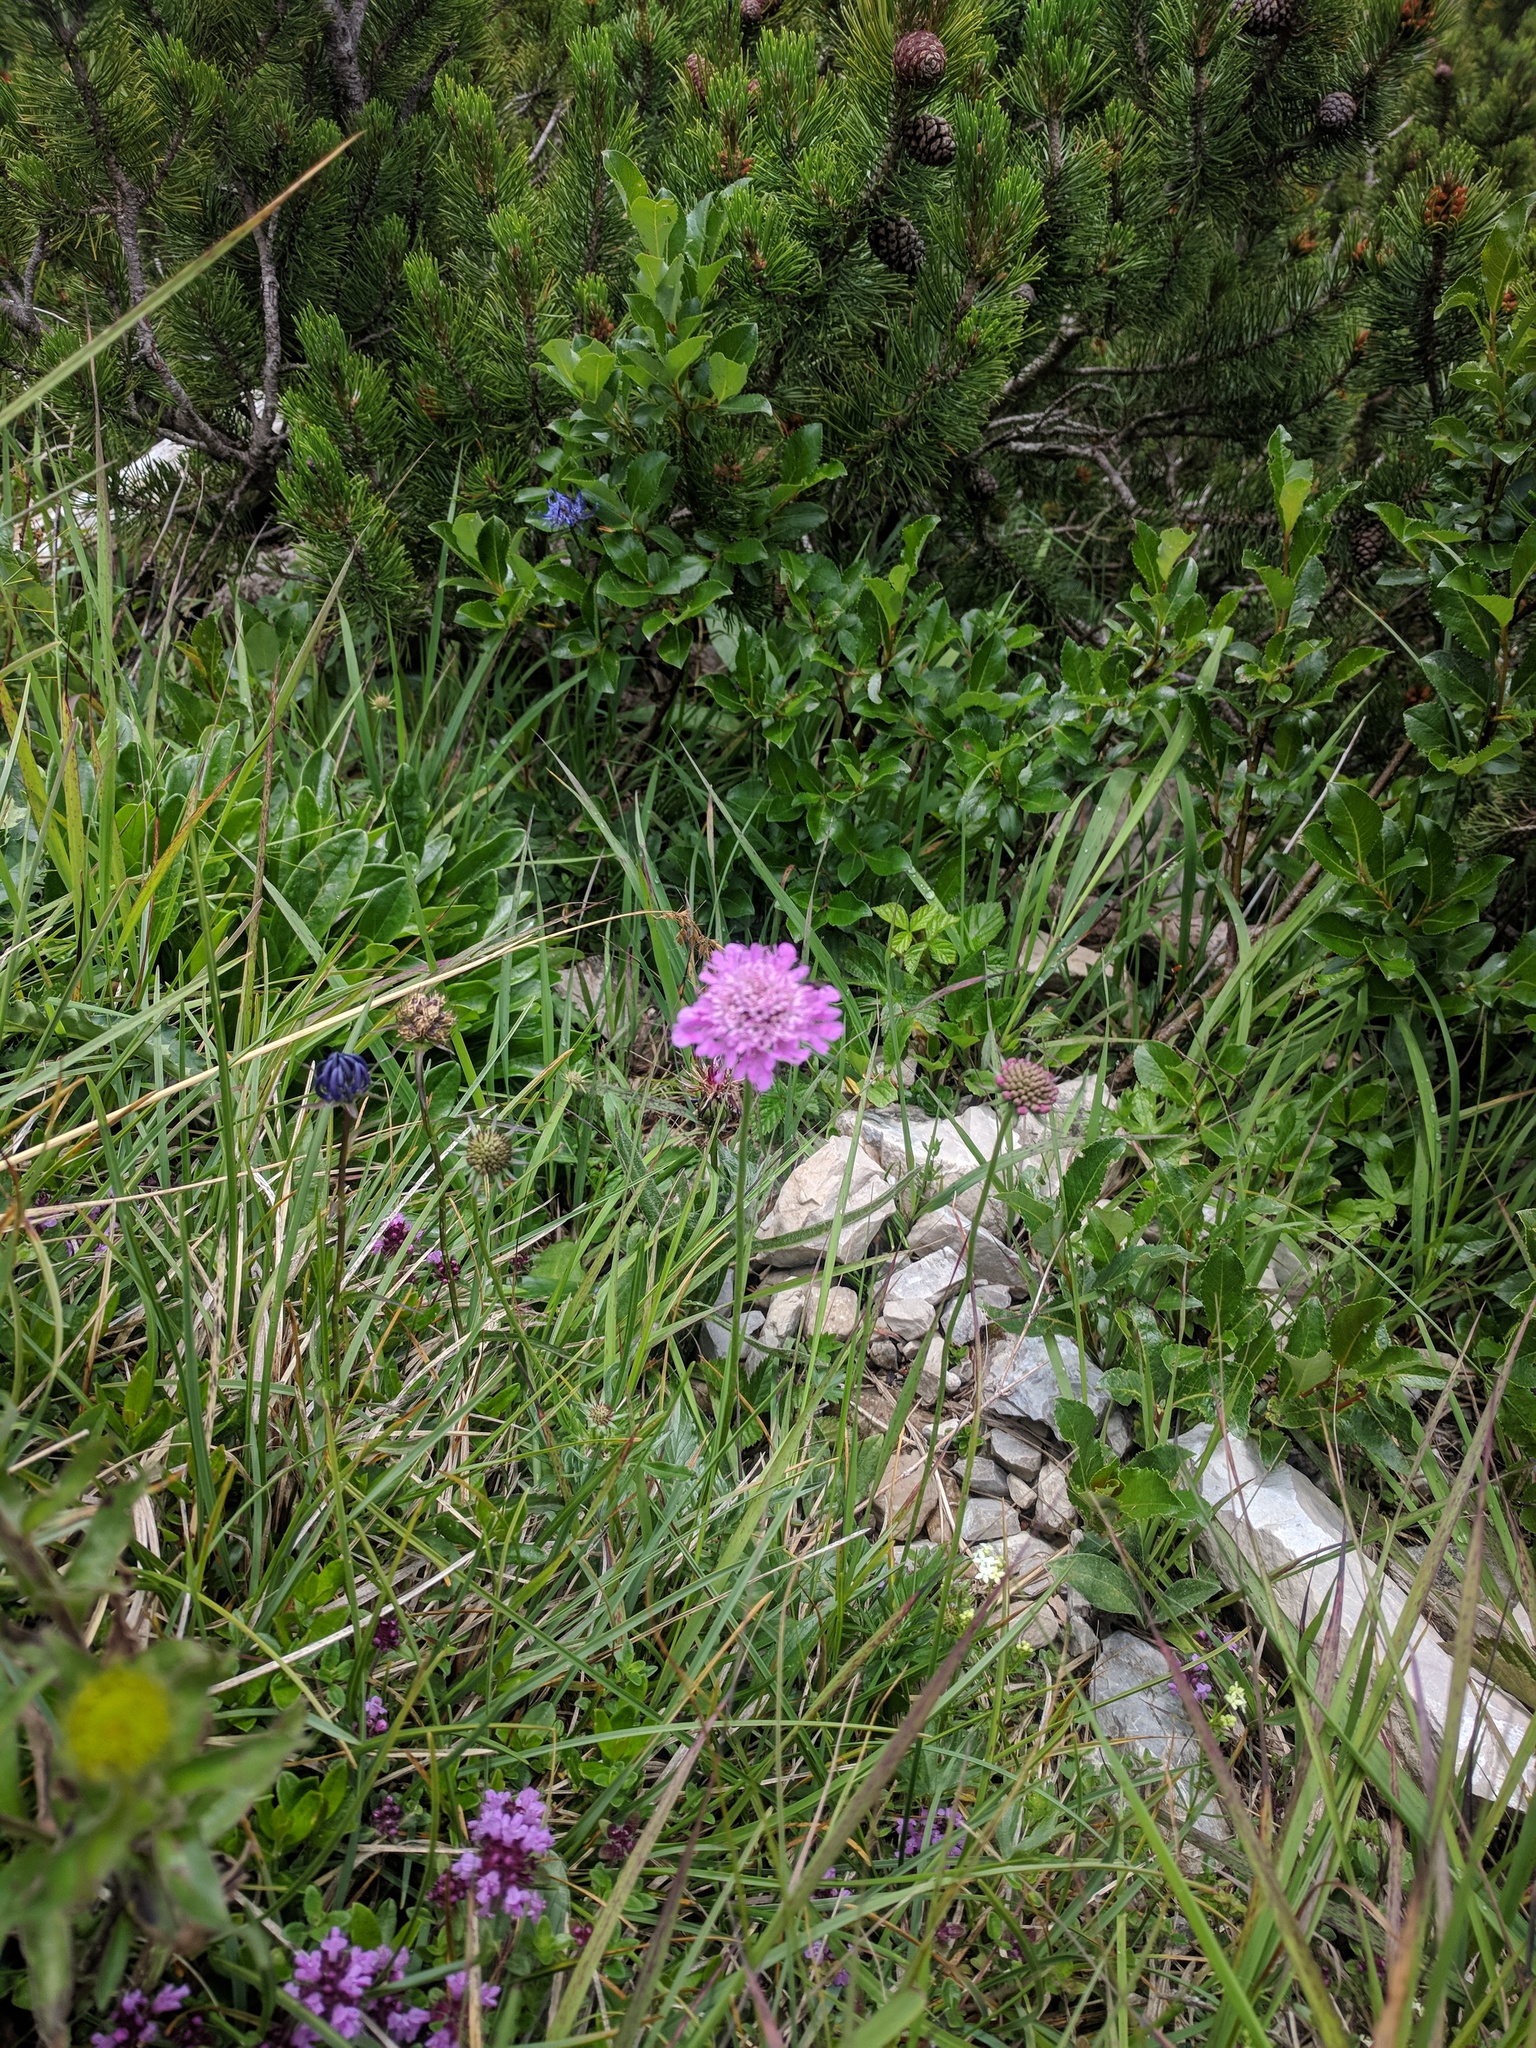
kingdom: Plantae
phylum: Tracheophyta
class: Magnoliopsida
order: Dipsacales
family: Caprifoliaceae
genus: Scabiosa
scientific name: Scabiosa lucida
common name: Shining scabious
